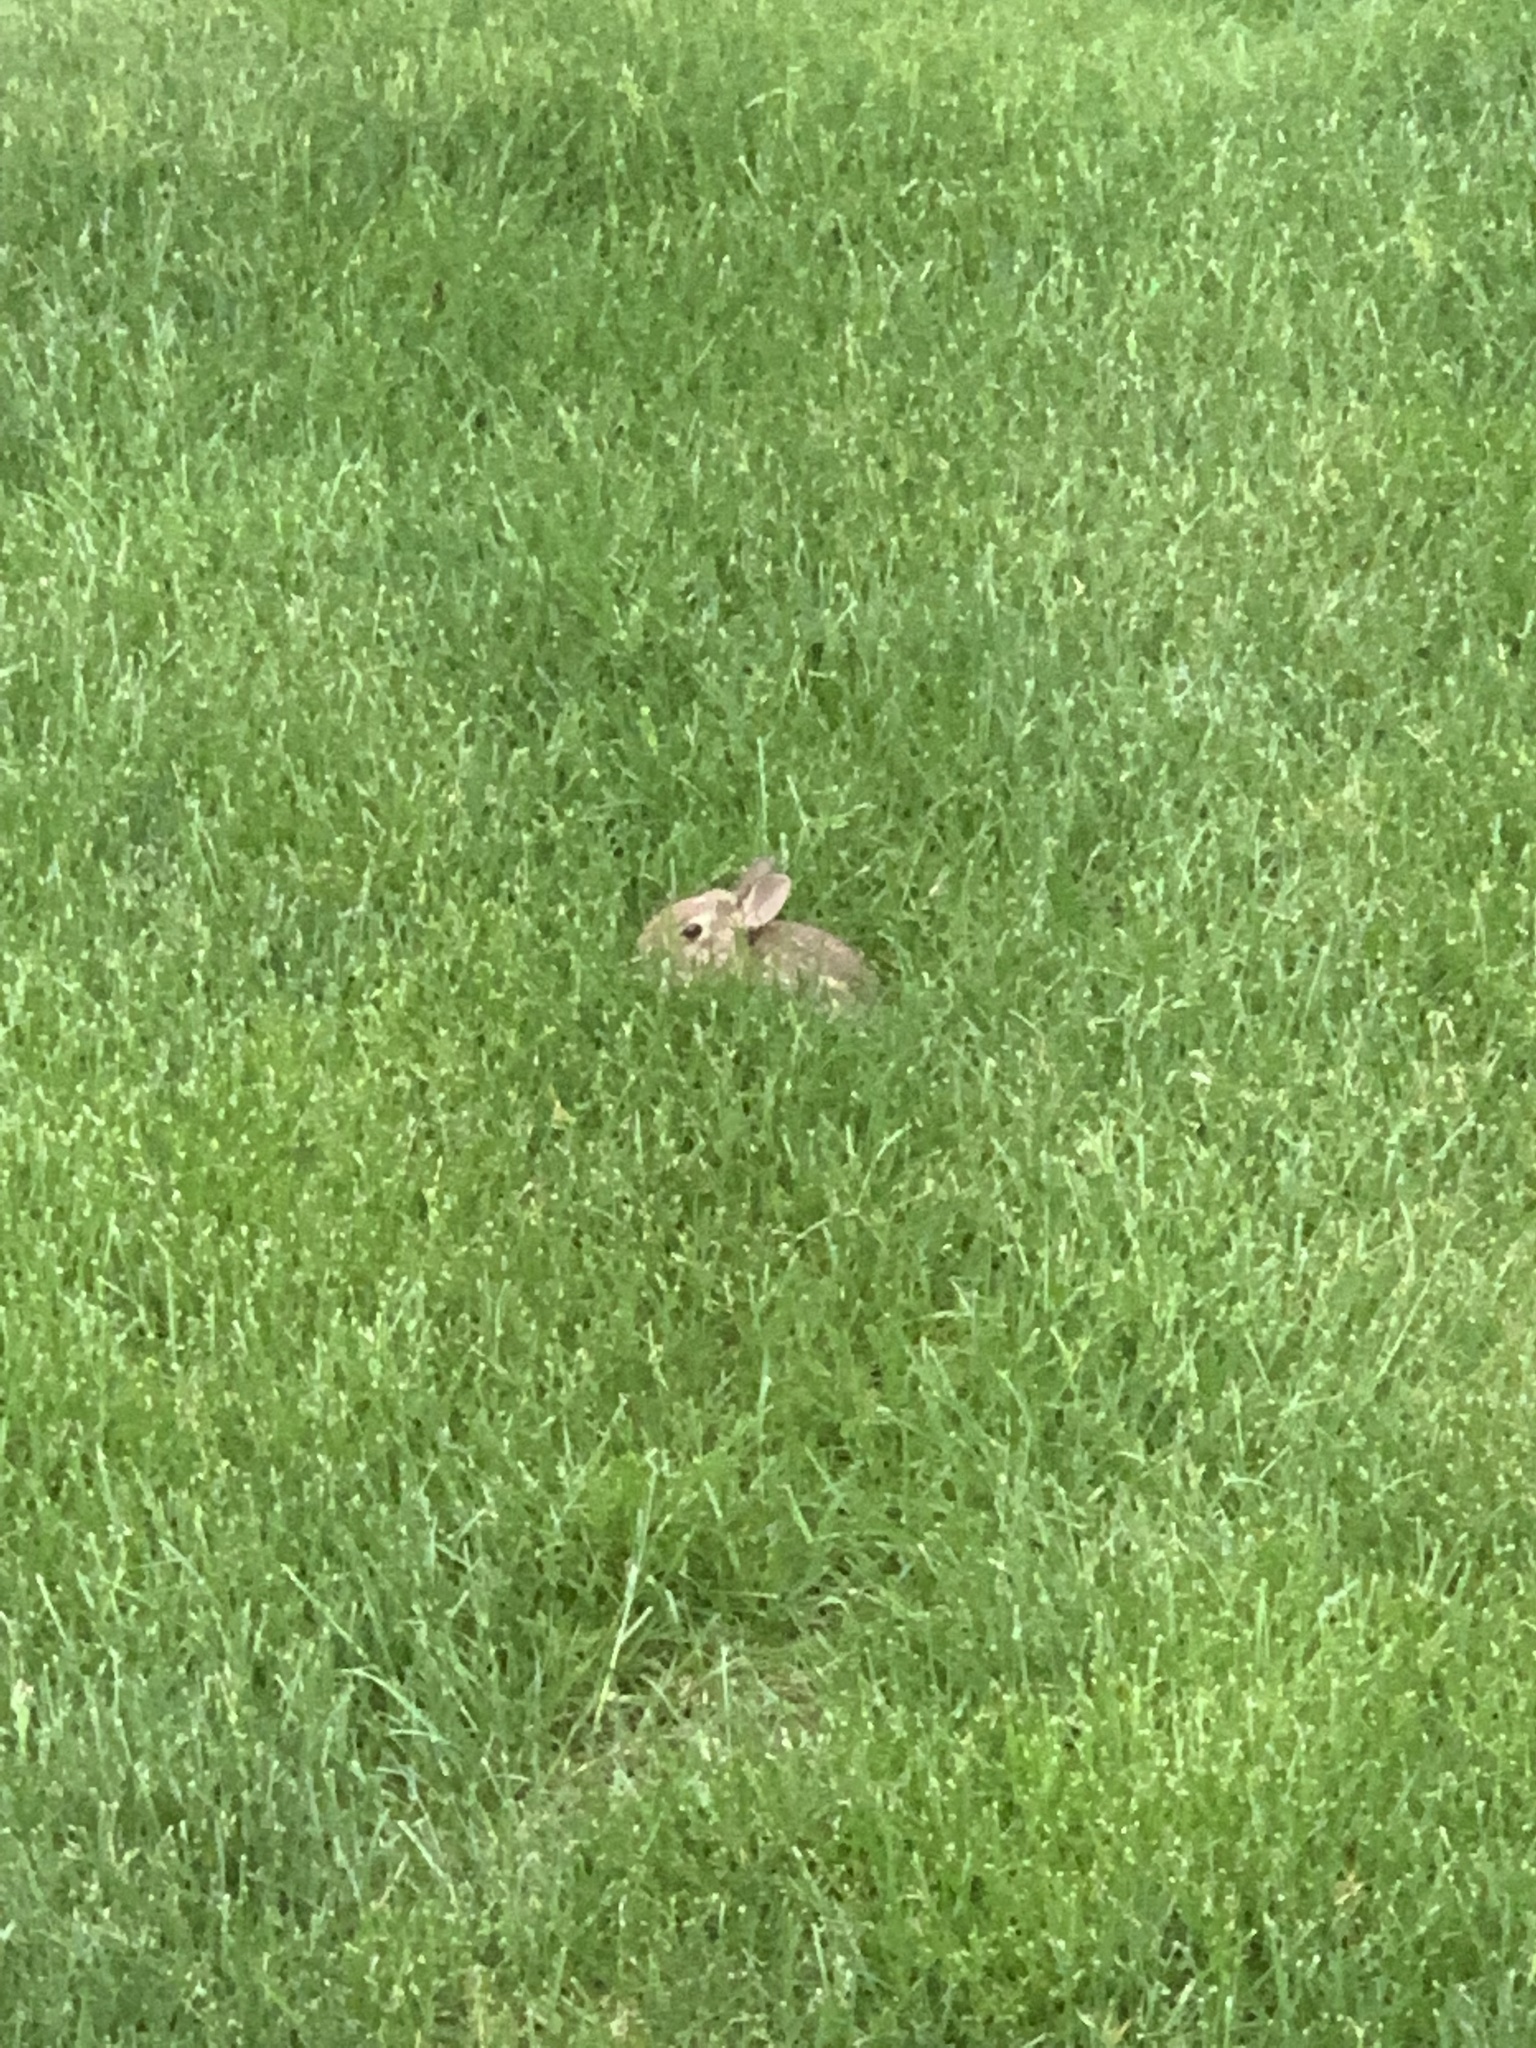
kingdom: Animalia
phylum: Chordata
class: Mammalia
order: Lagomorpha
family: Leporidae
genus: Sylvilagus
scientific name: Sylvilagus floridanus
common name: Eastern cottontail
